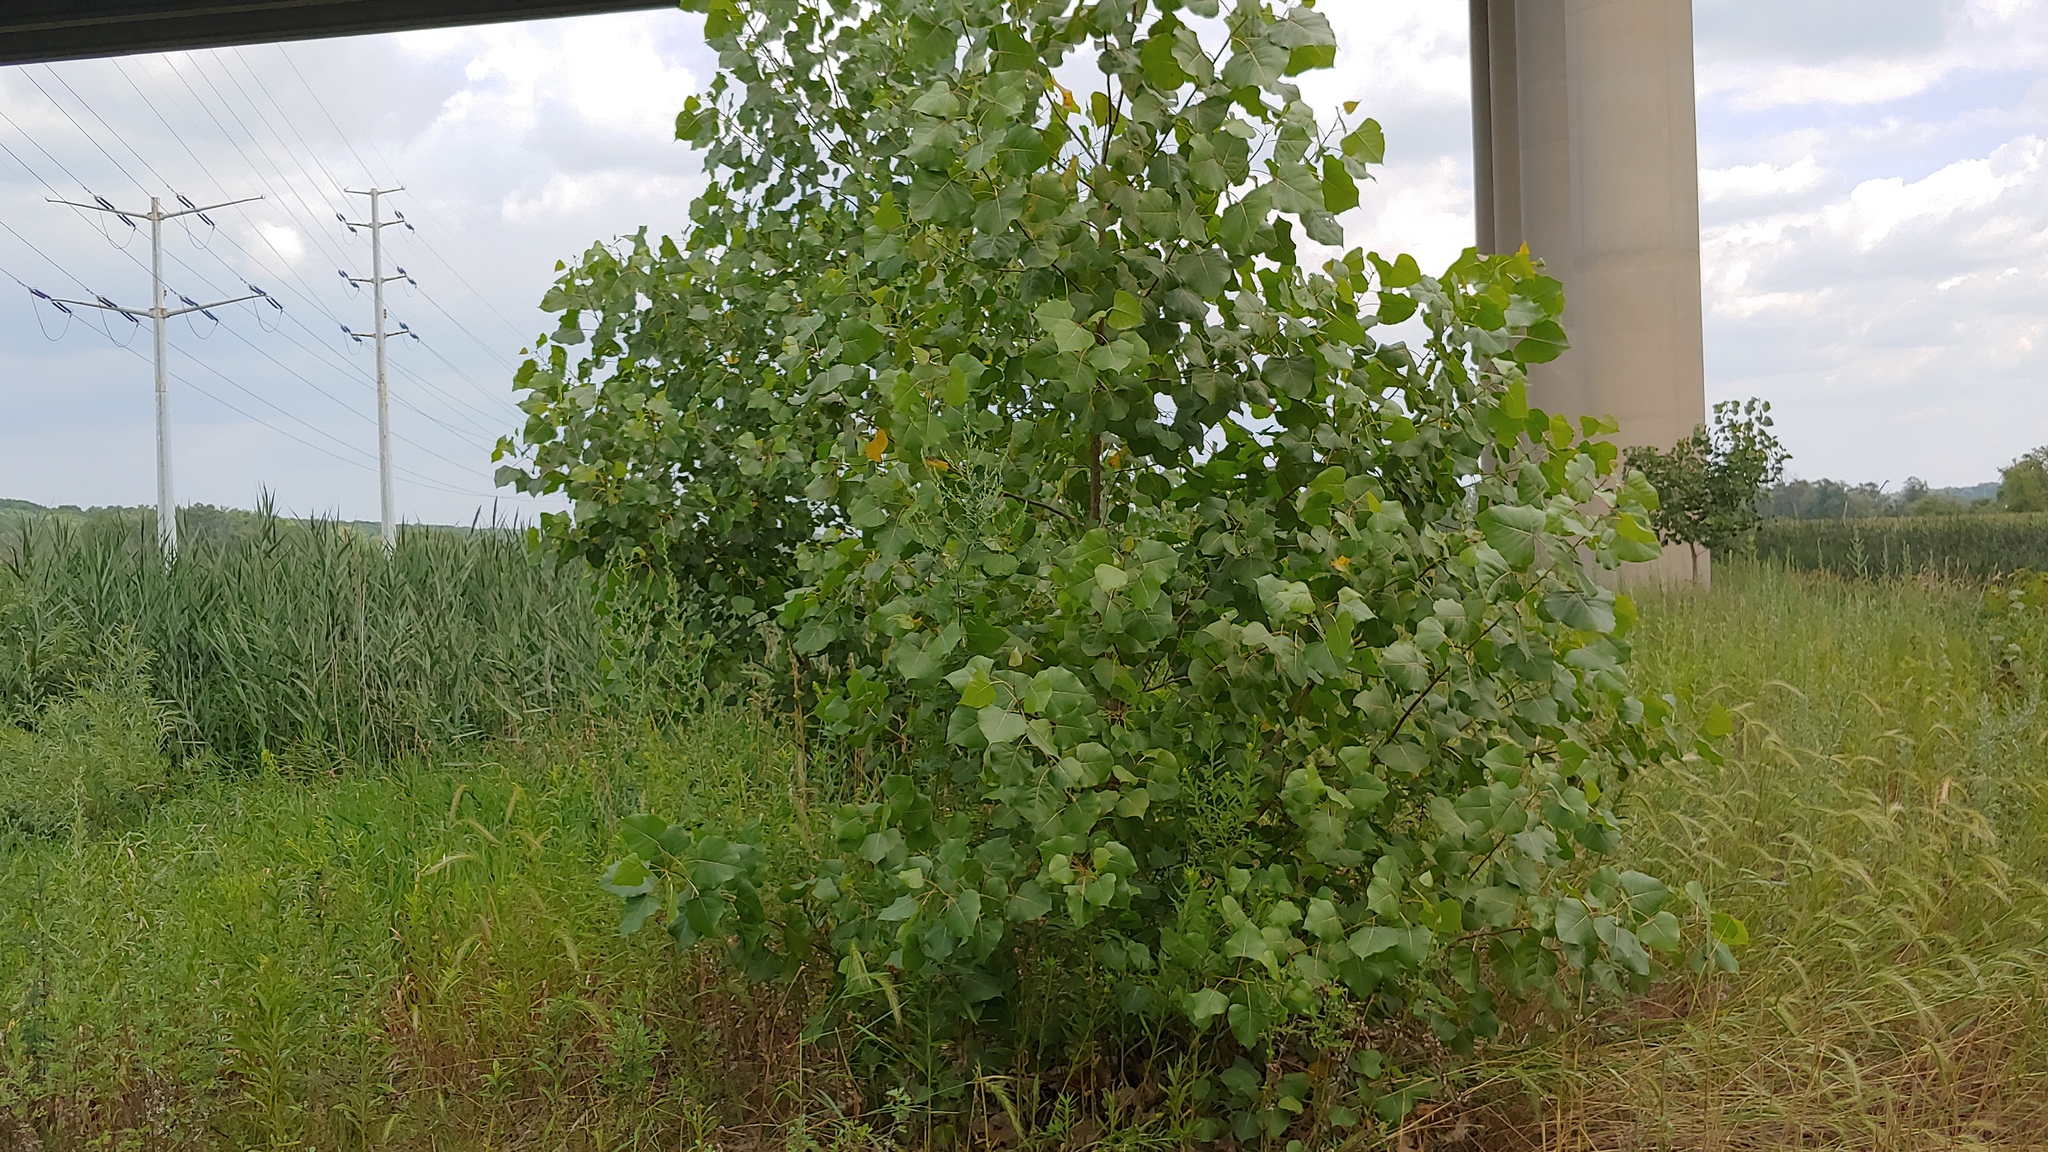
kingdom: Plantae
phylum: Tracheophyta
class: Magnoliopsida
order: Malpighiales
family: Salicaceae
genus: Populus
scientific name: Populus deltoides
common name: Eastern cottonwood
